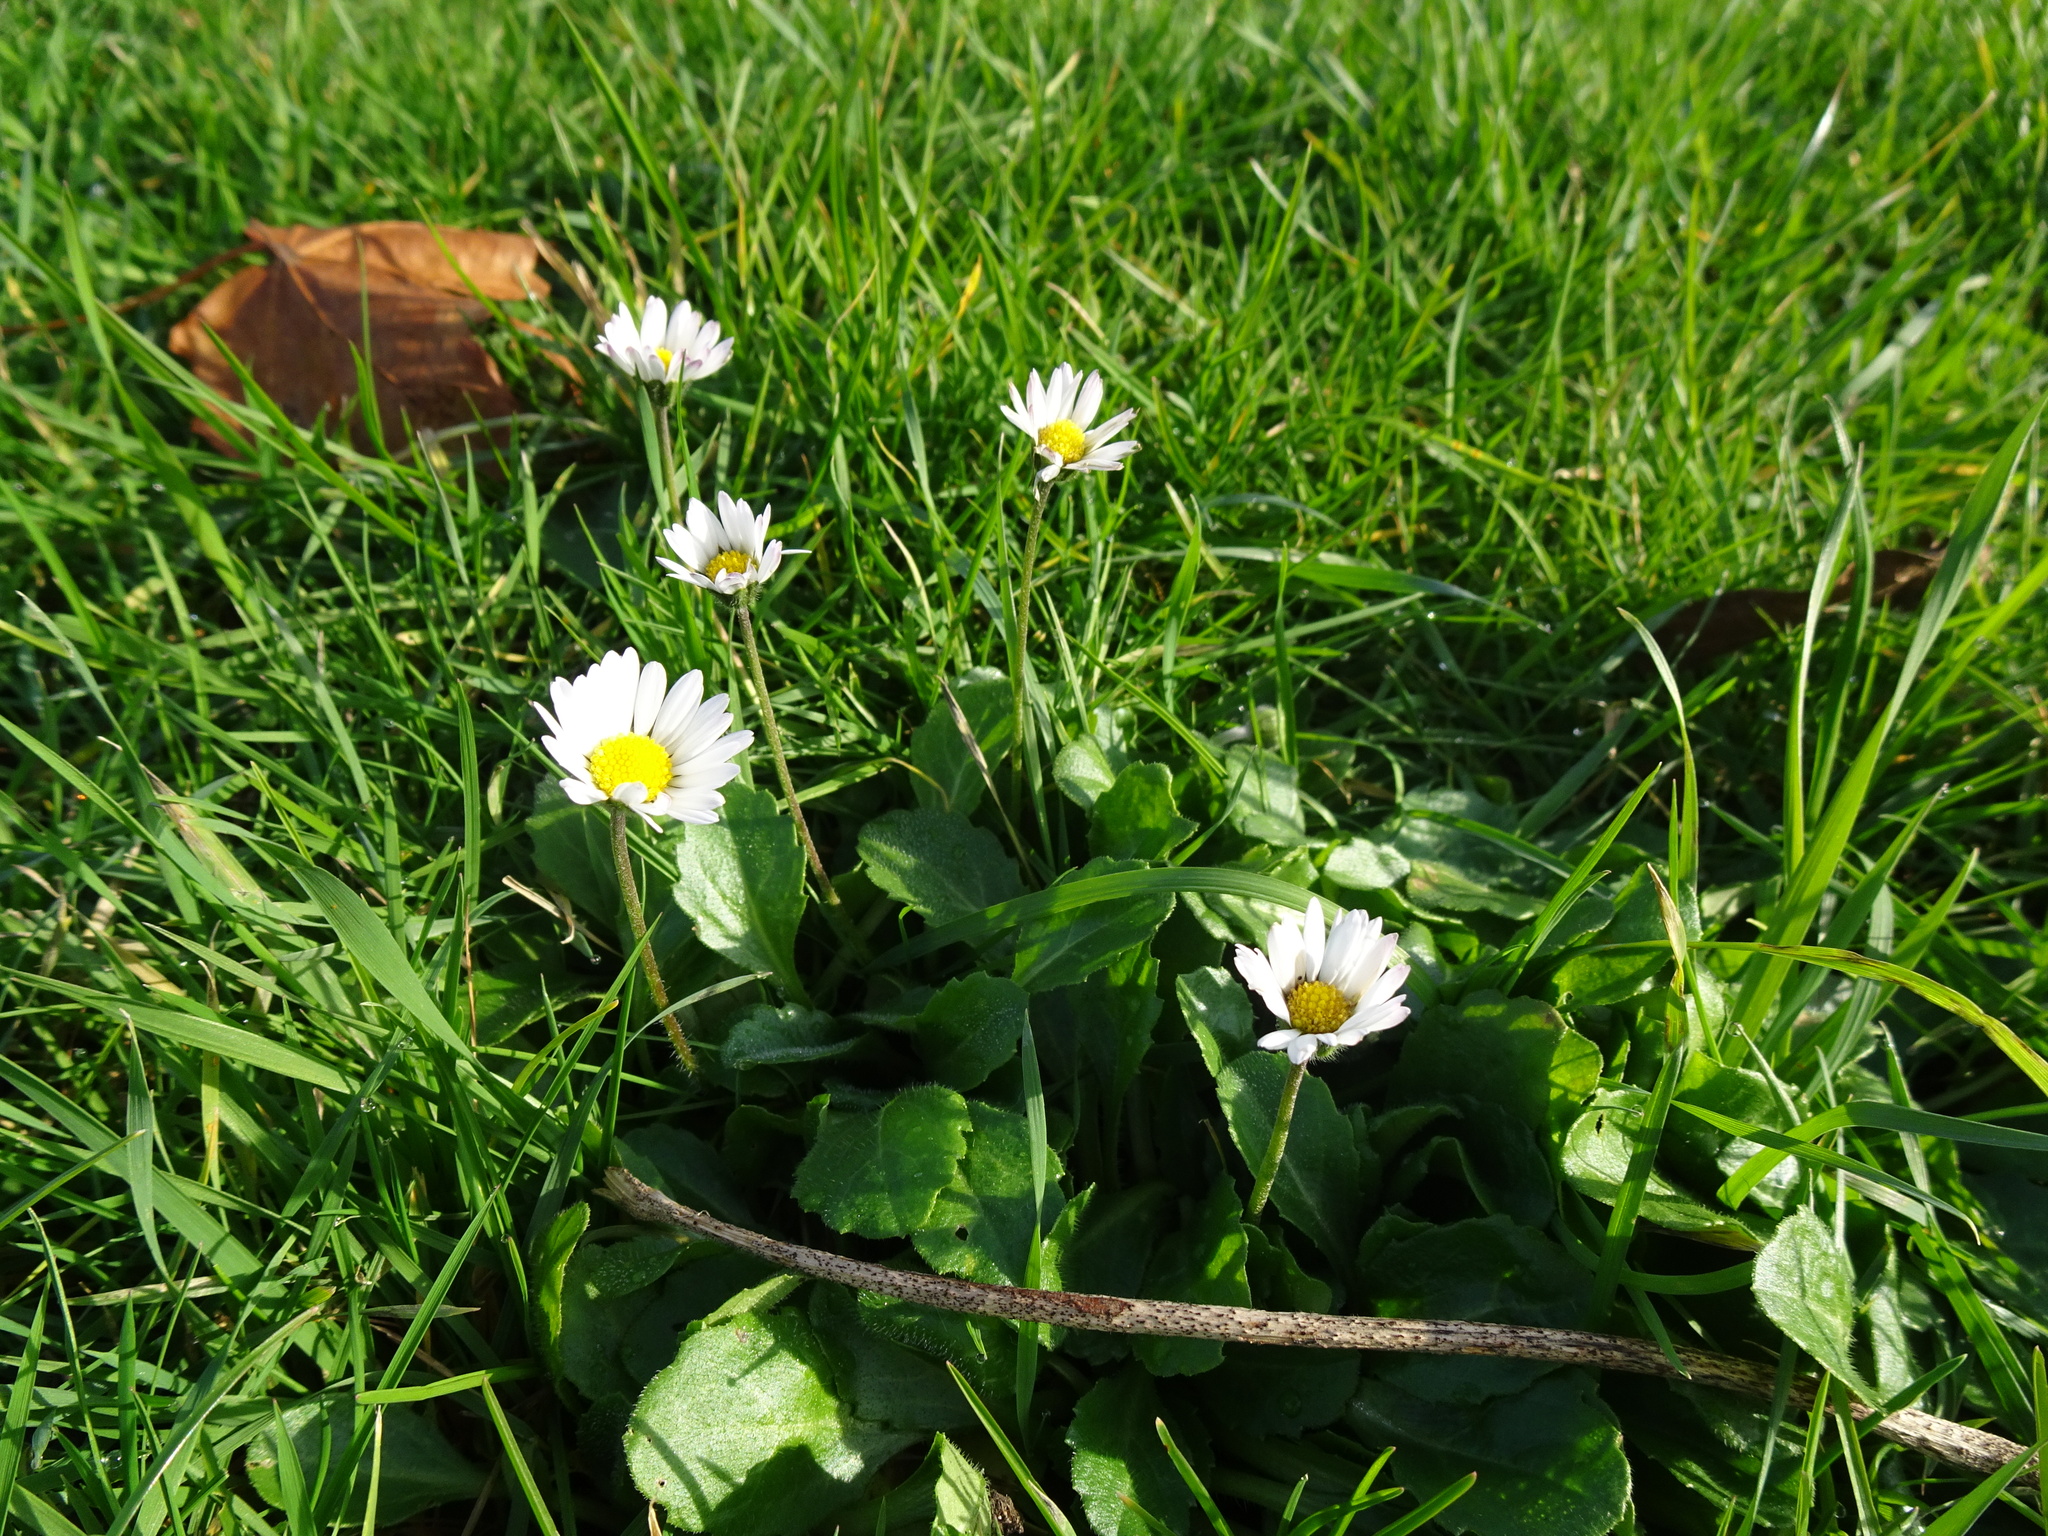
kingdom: Plantae
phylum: Tracheophyta
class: Magnoliopsida
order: Asterales
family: Asteraceae
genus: Bellis
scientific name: Bellis perennis
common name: Lawndaisy
